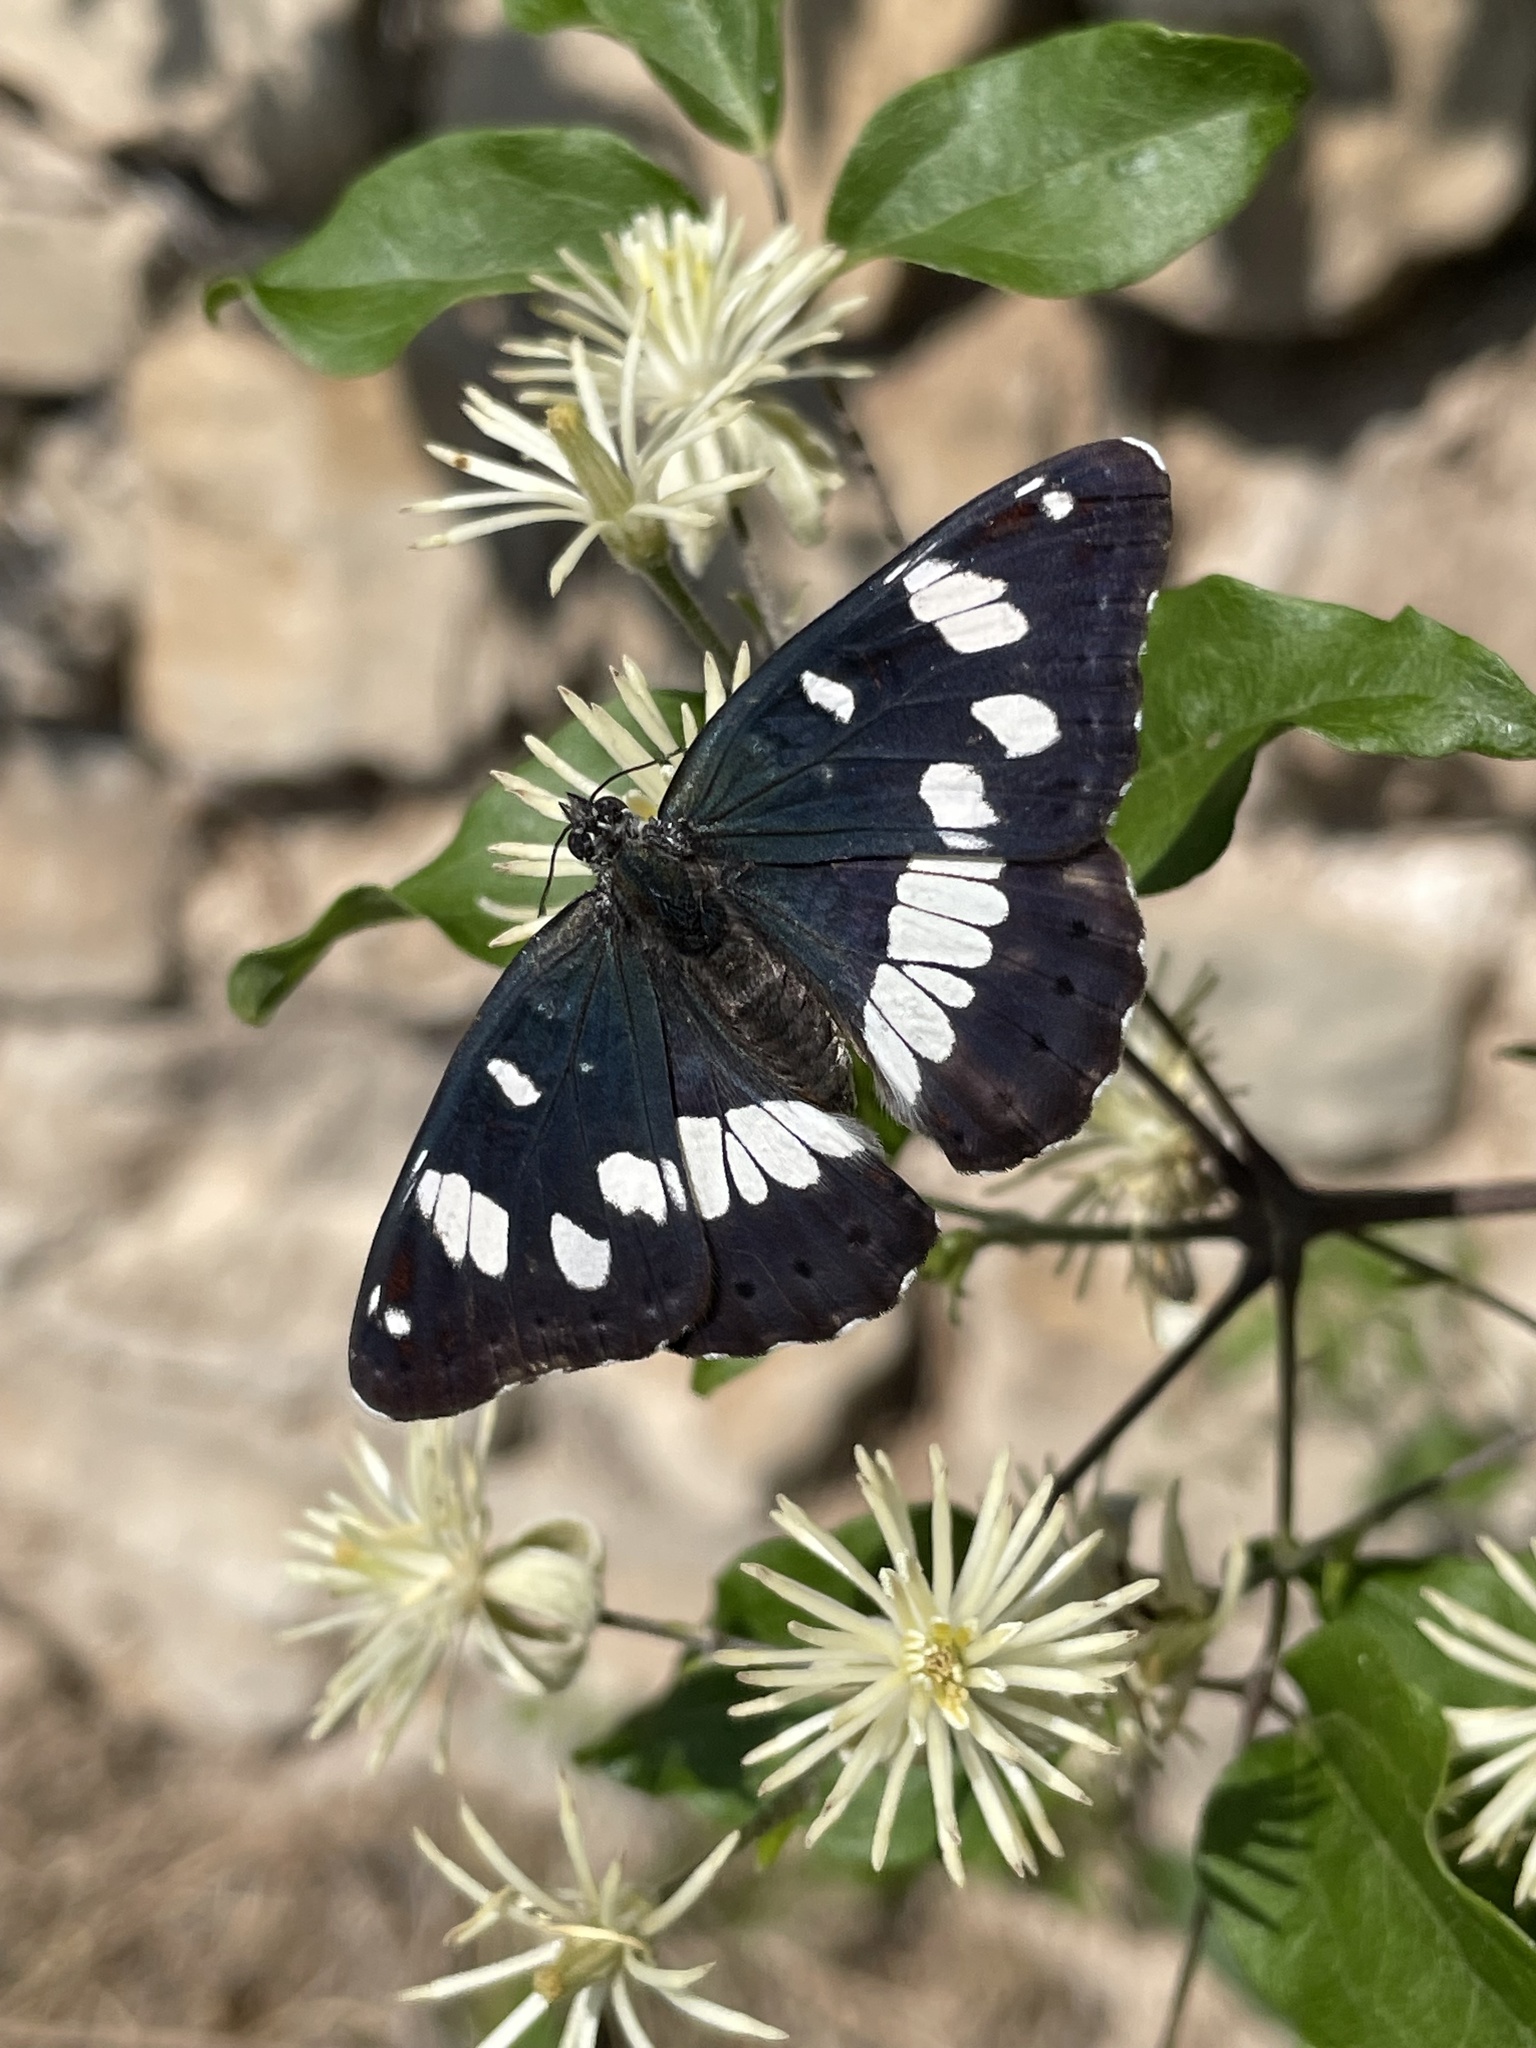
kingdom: Animalia
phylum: Arthropoda
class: Insecta
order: Lepidoptera
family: Nymphalidae
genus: Limenitis
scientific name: Limenitis reducta
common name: Southern white admiral
